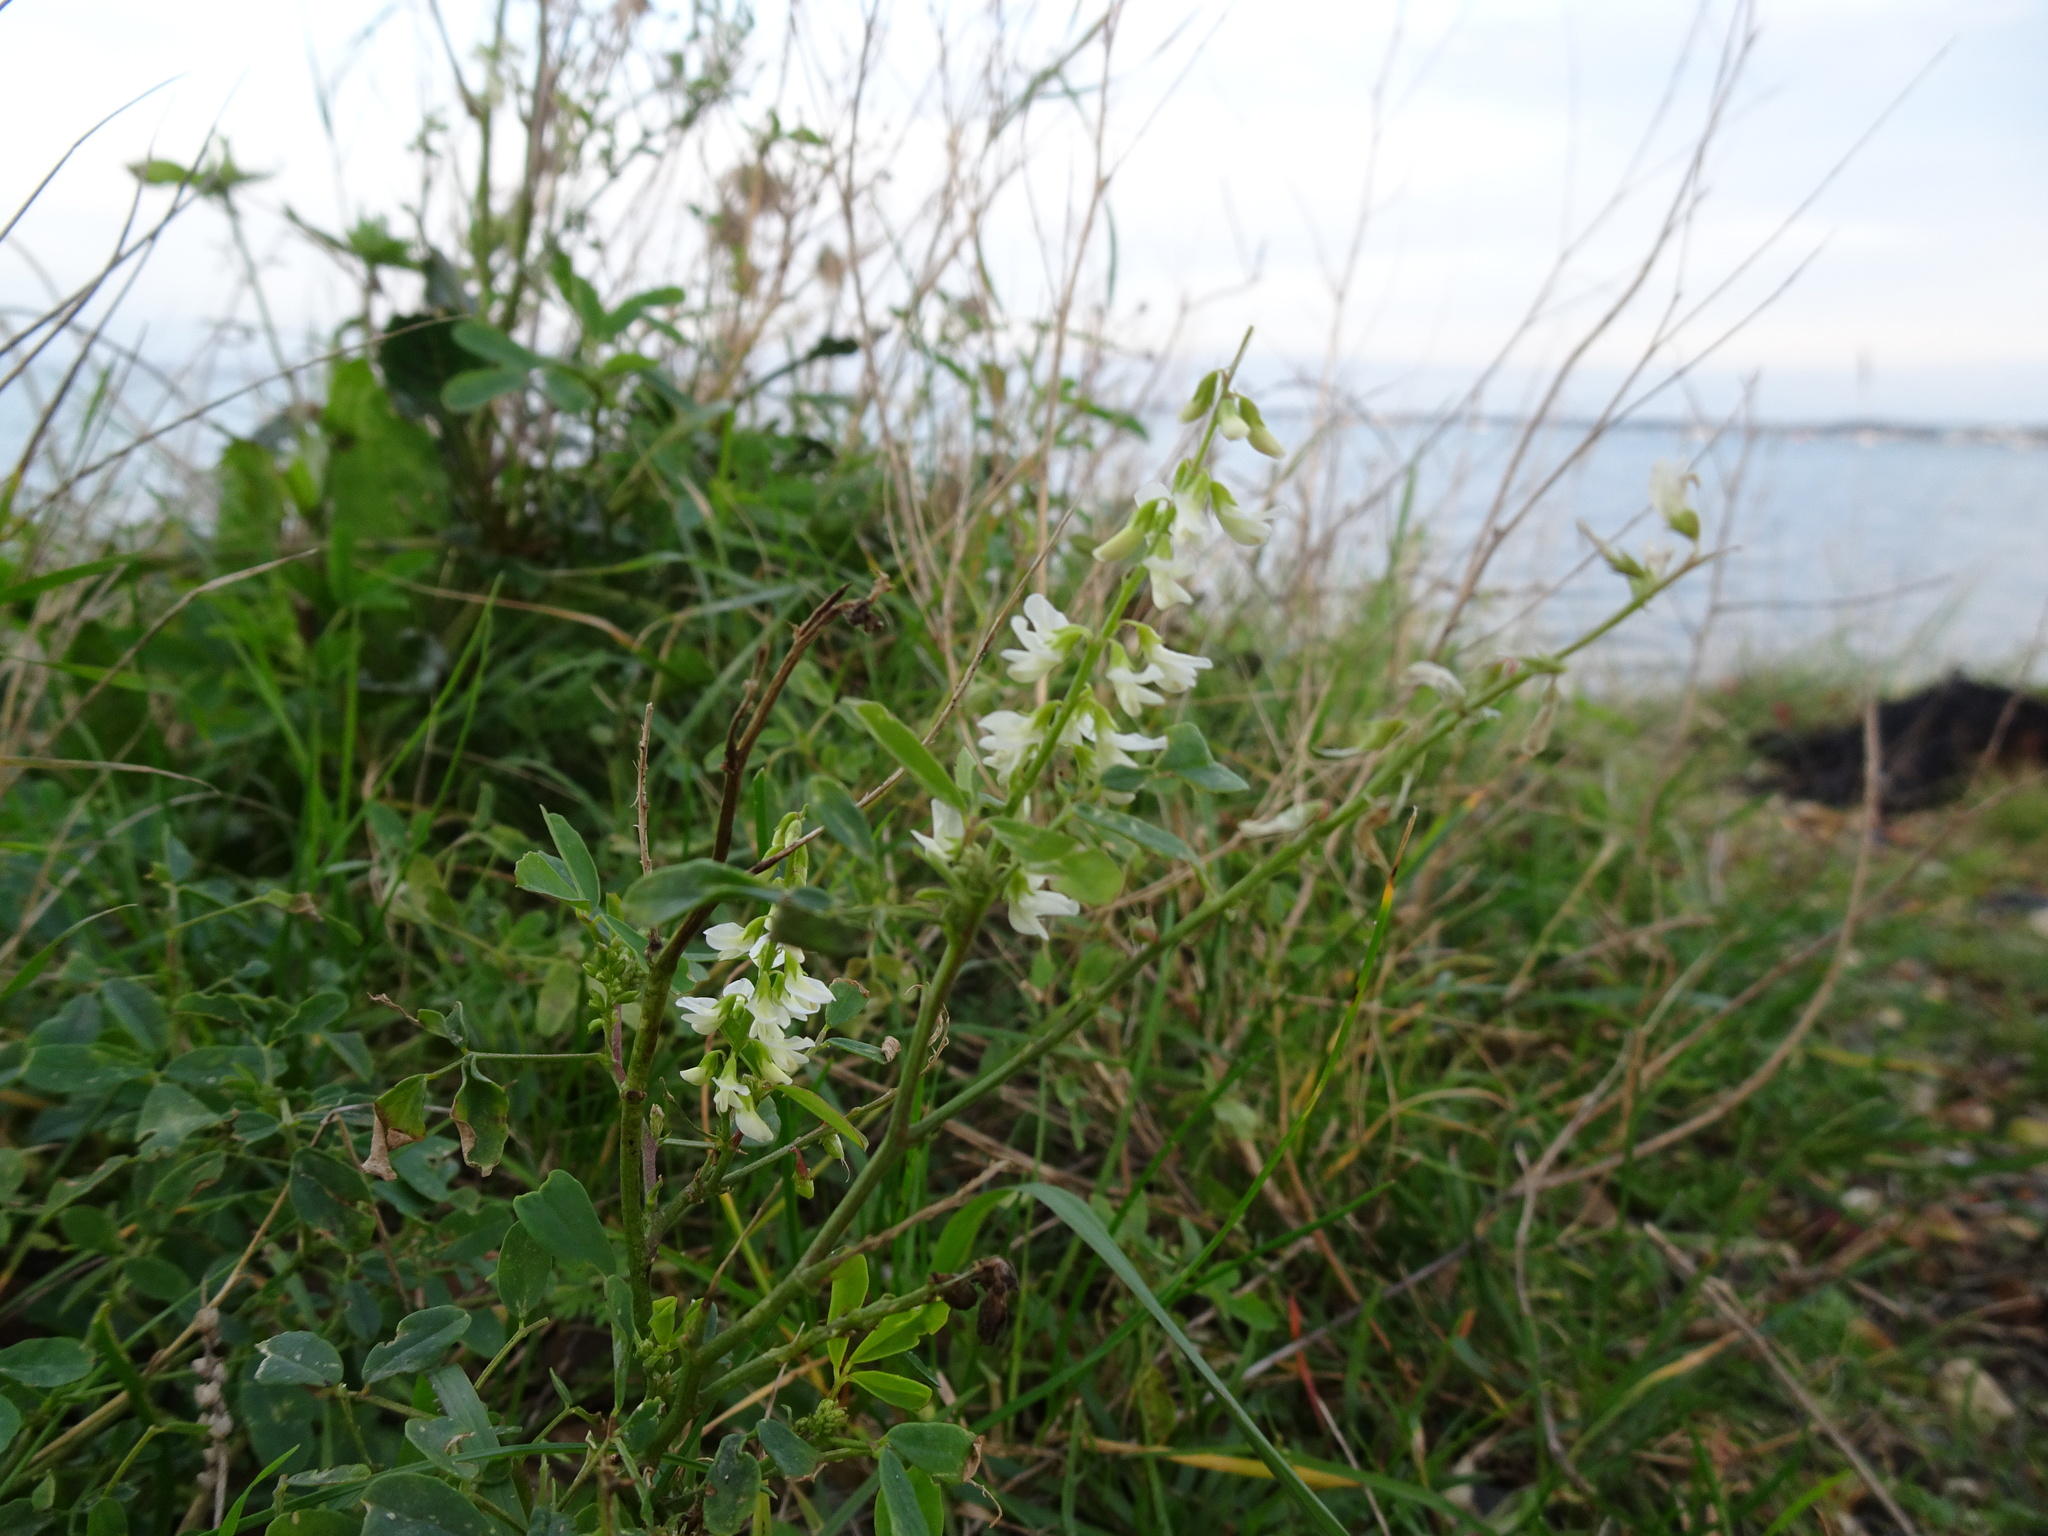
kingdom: Plantae
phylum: Tracheophyta
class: Magnoliopsida
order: Fabales
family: Fabaceae
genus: Melilotus
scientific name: Melilotus albus
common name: White melilot
